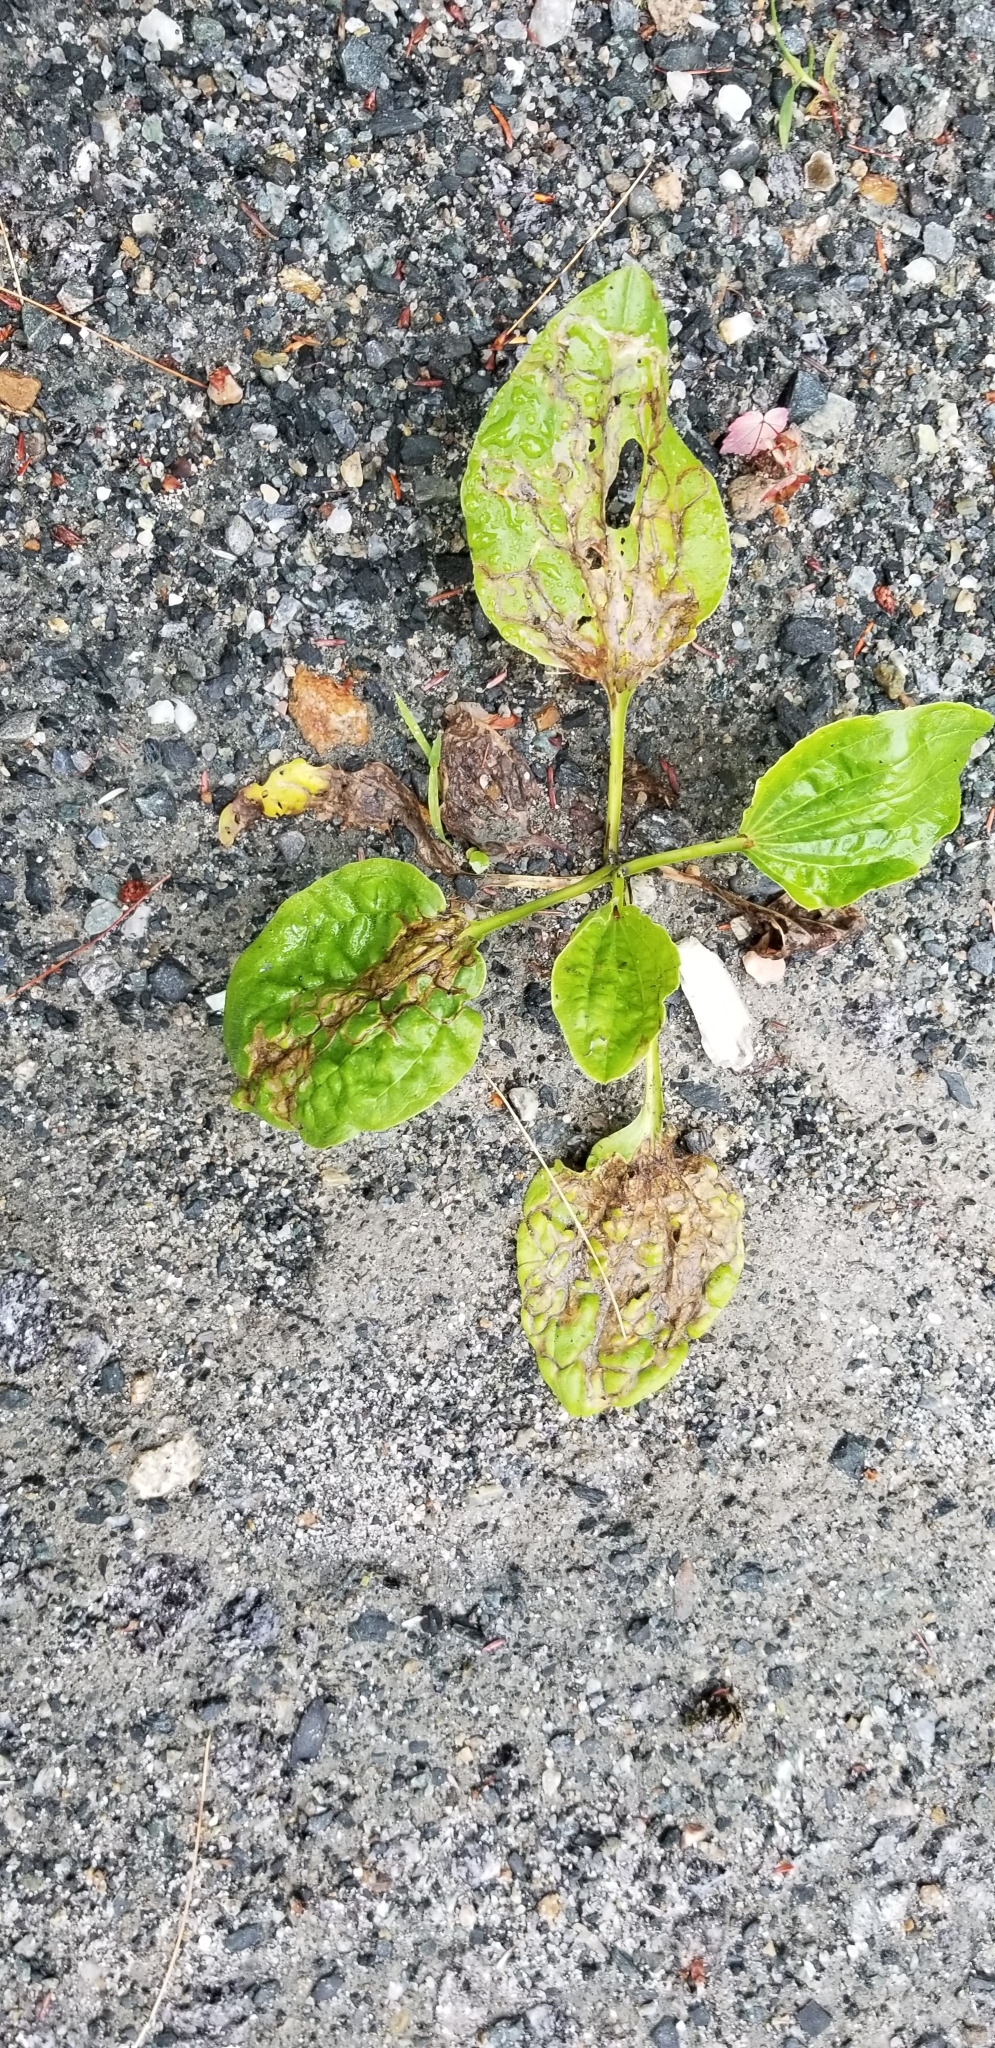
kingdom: Plantae
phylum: Tracheophyta
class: Magnoliopsida
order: Lamiales
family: Plantaginaceae
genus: Plantago
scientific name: Plantago major
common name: Common plantain
